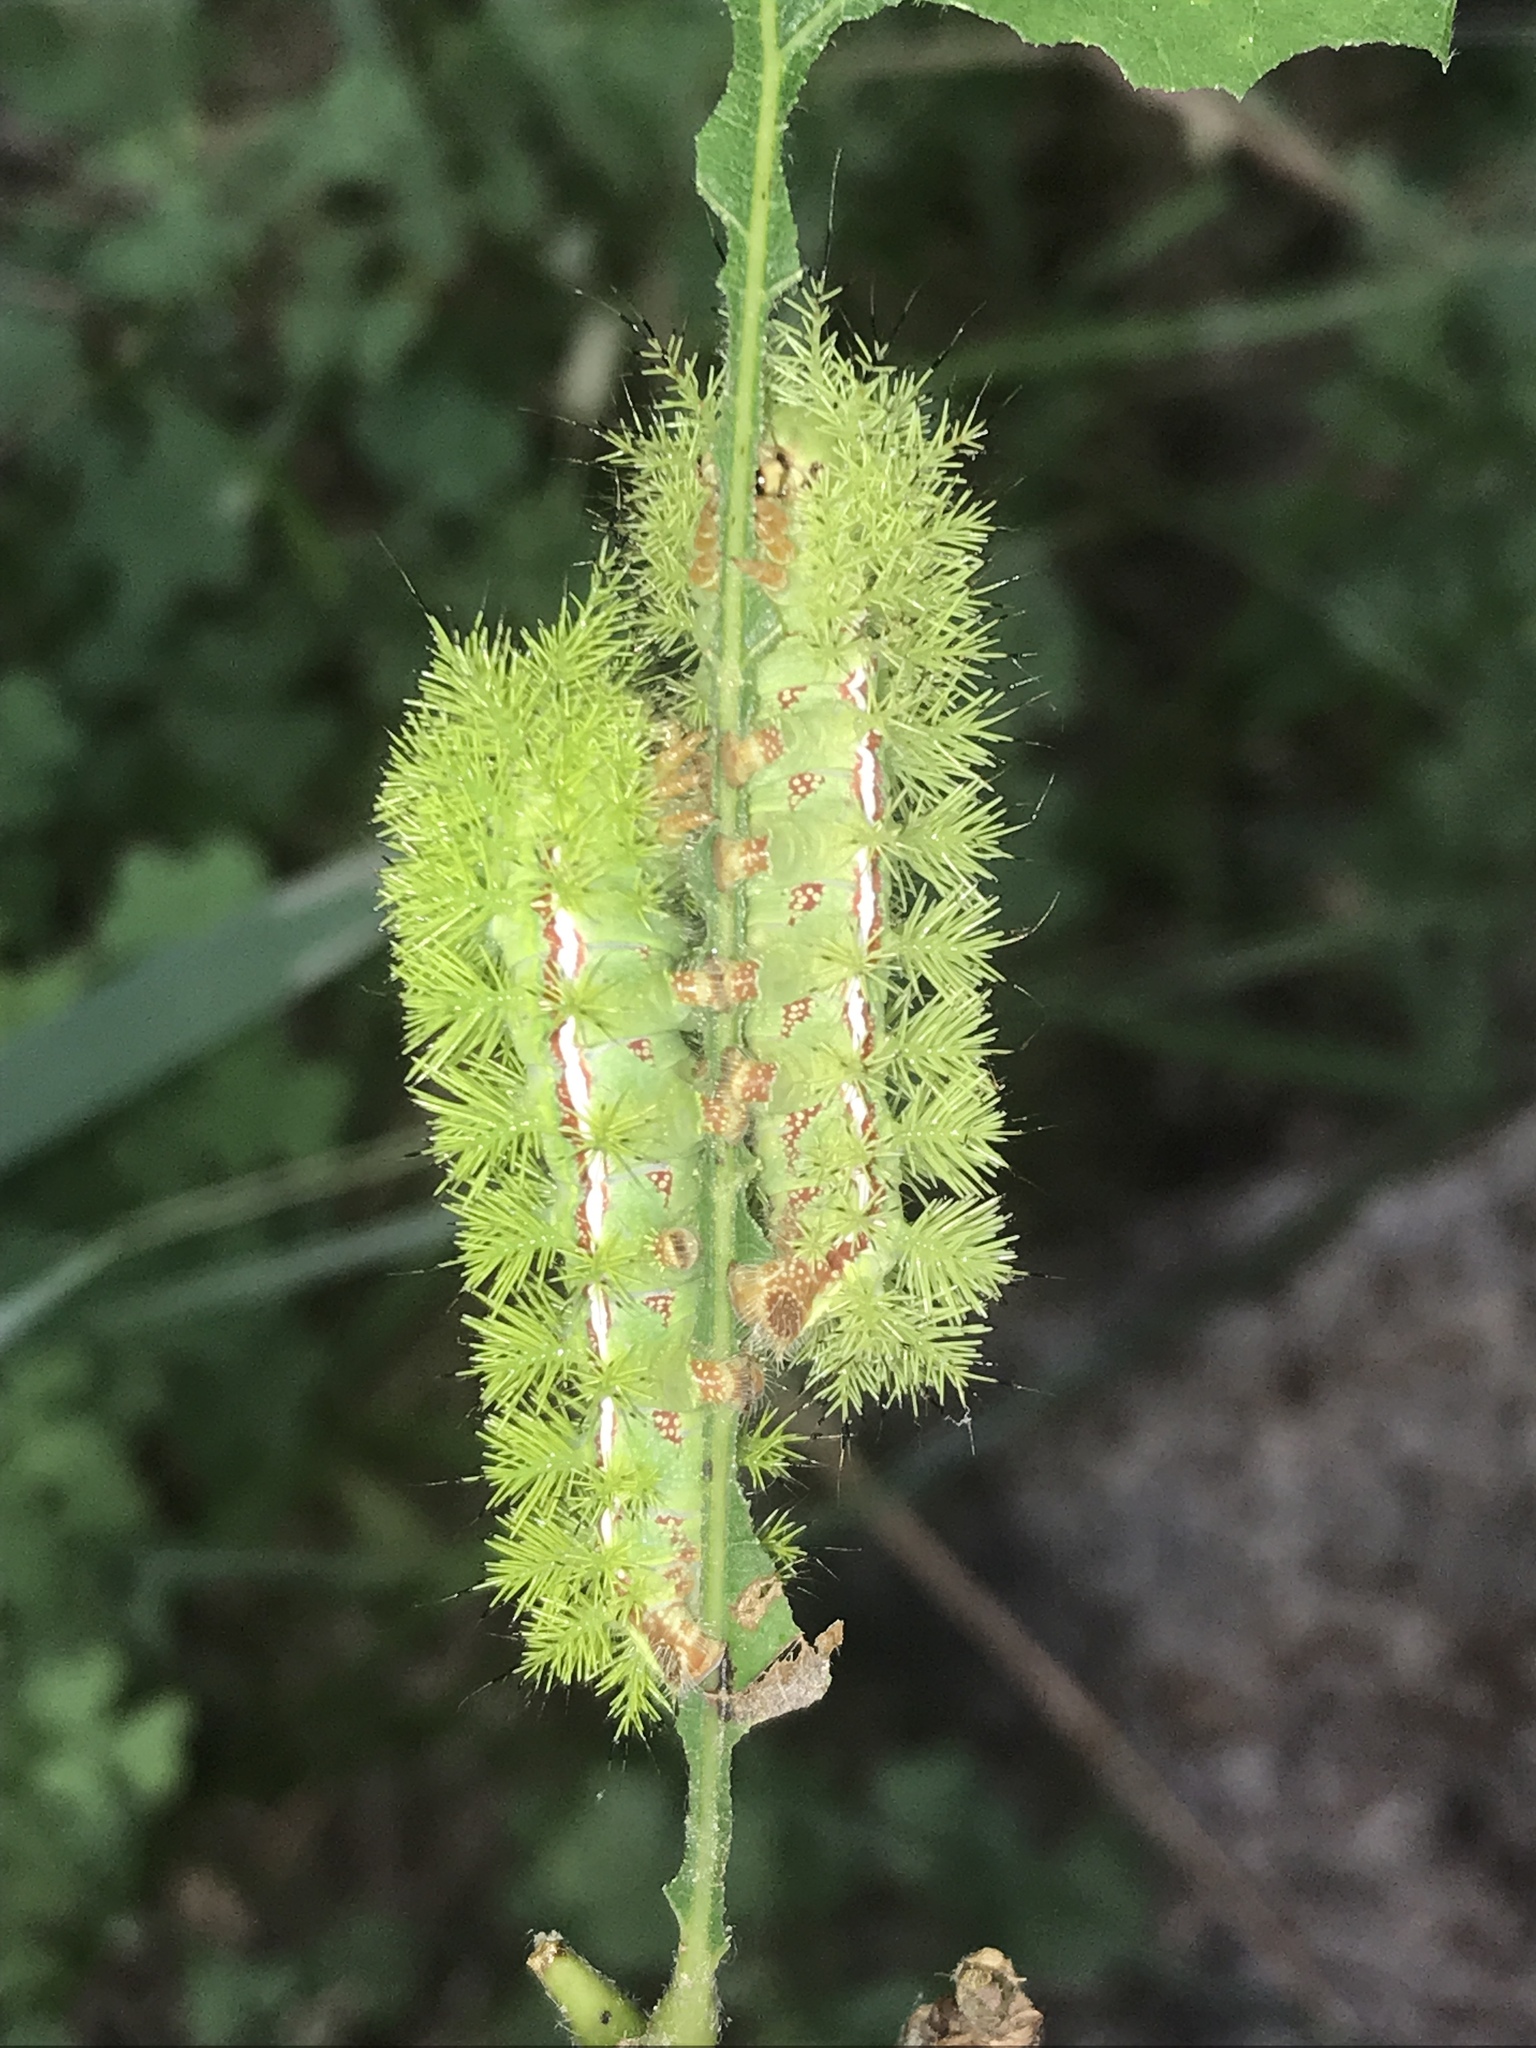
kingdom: Animalia
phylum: Arthropoda
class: Insecta
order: Lepidoptera
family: Saturniidae
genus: Automeris
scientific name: Automeris io
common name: Io moth
